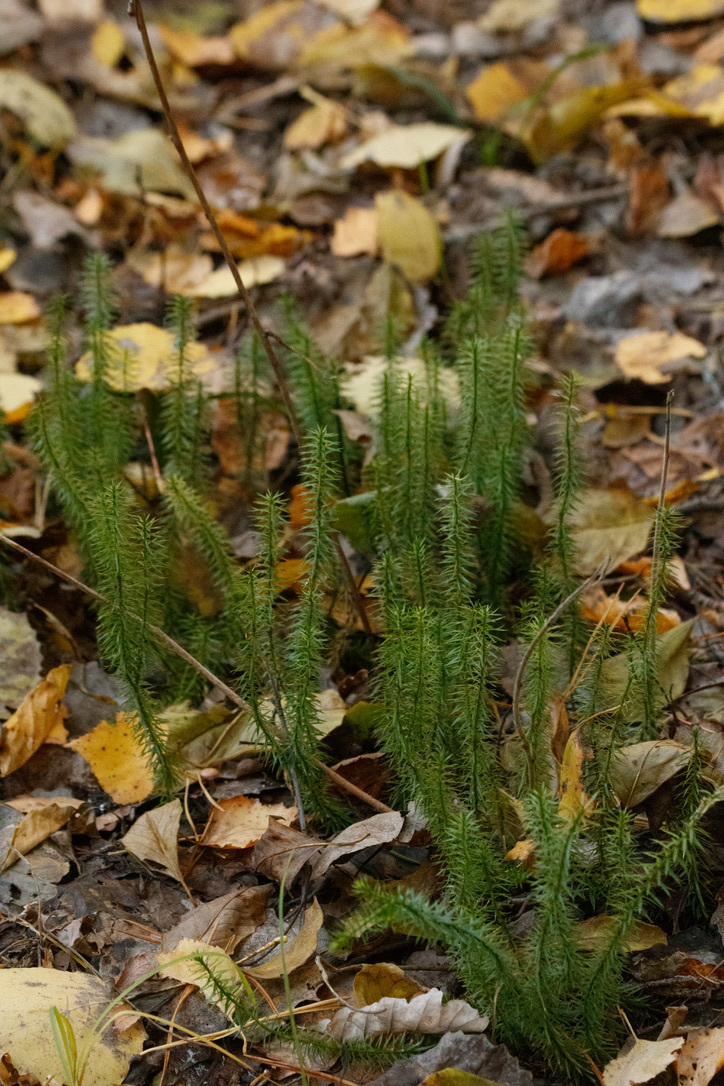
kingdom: Plantae
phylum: Tracheophyta
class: Lycopodiopsida
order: Lycopodiales
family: Lycopodiaceae
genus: Spinulum
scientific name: Spinulum annotinum
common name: Interrupted club-moss
